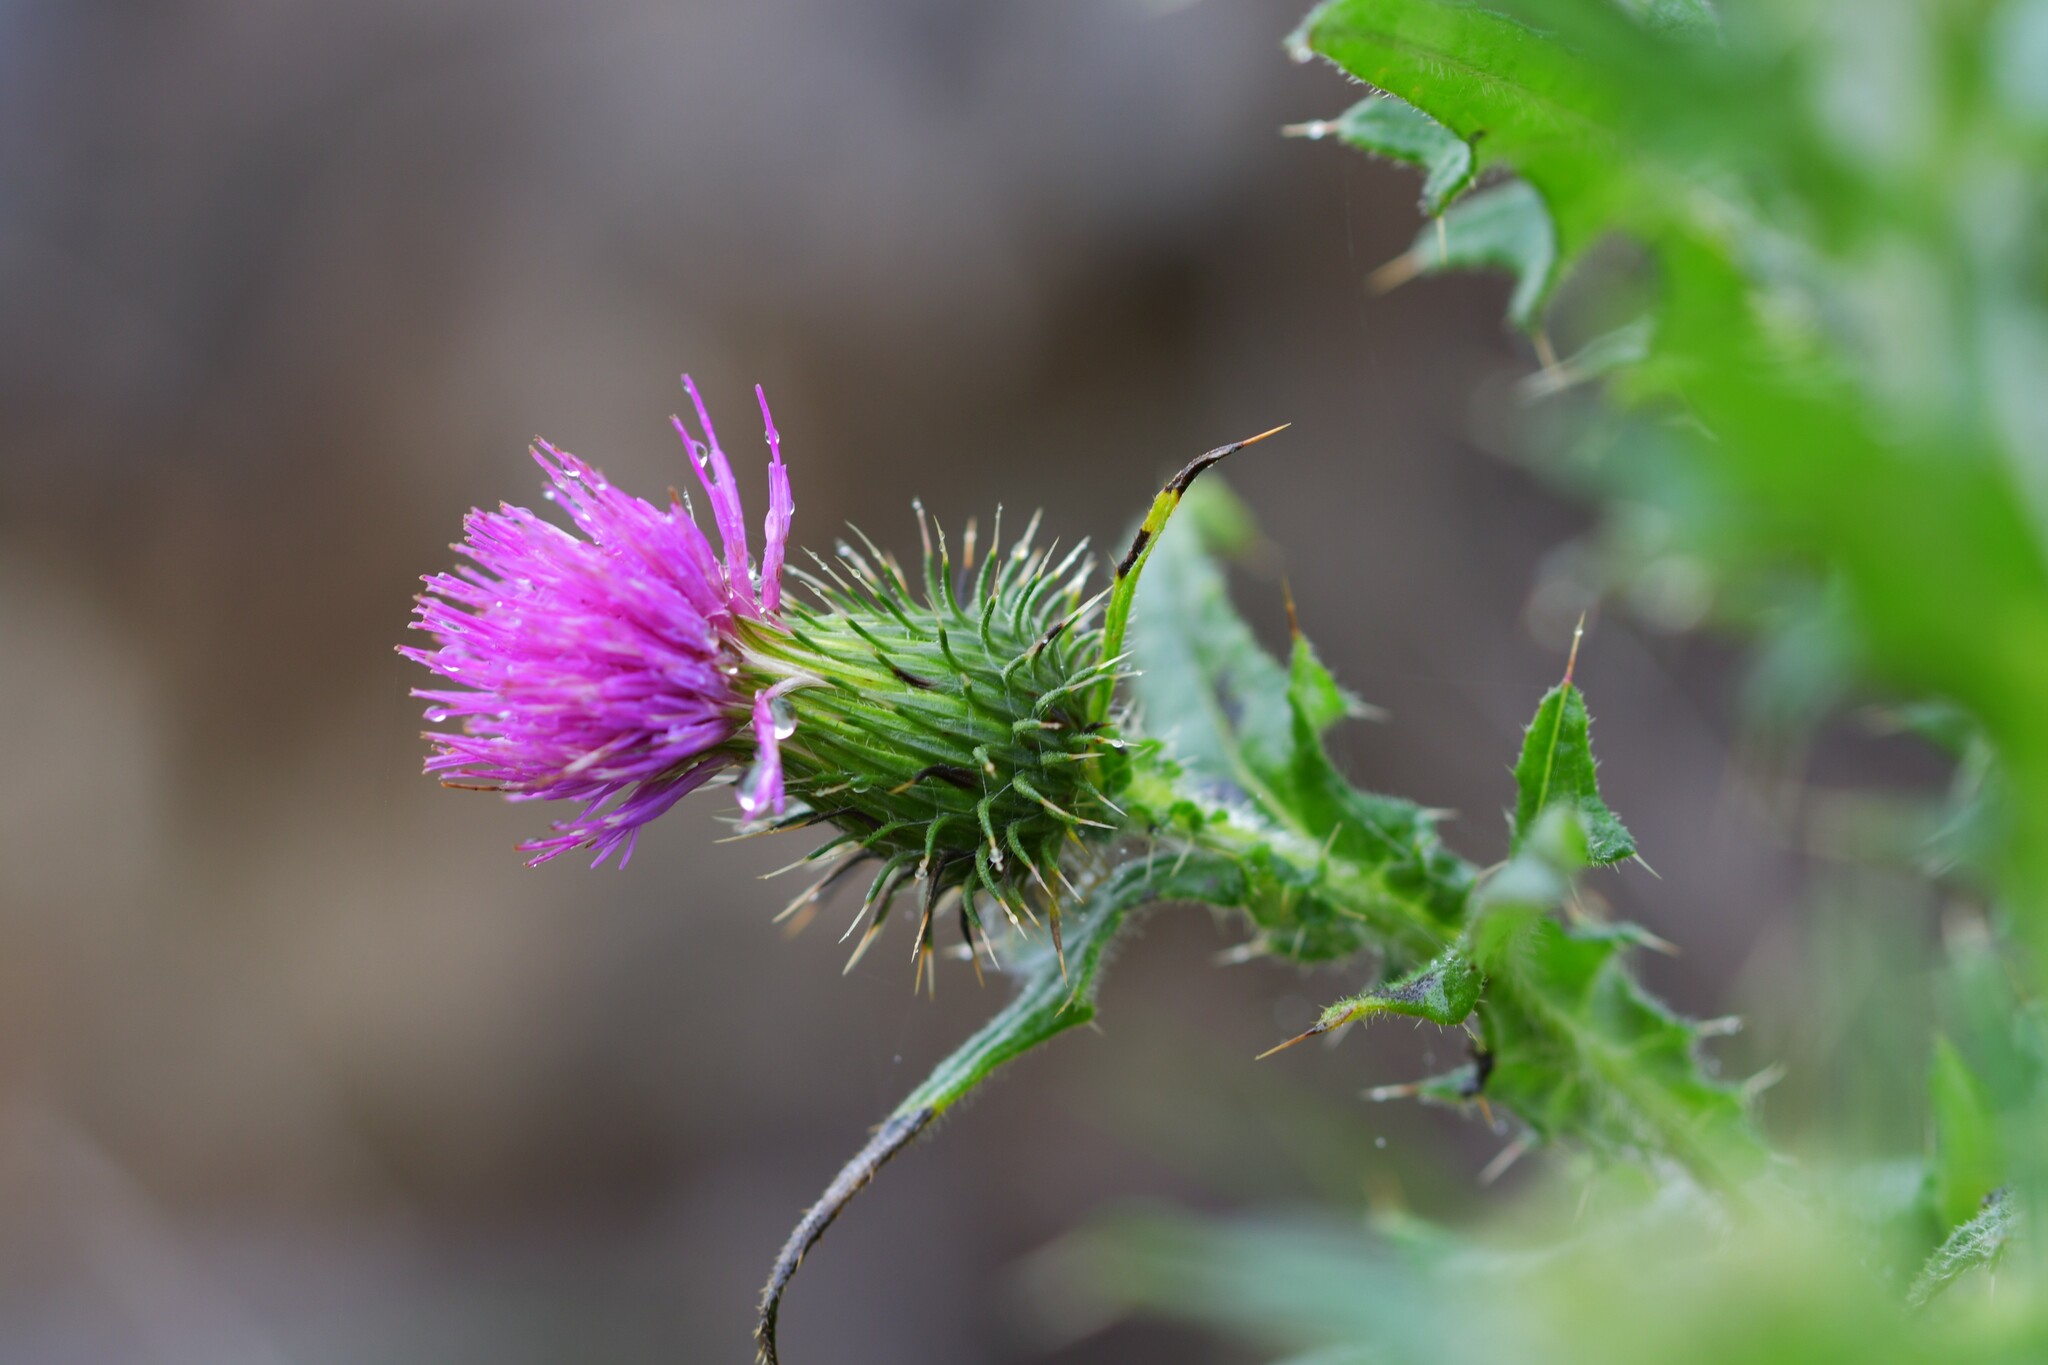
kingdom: Plantae
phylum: Tracheophyta
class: Magnoliopsida
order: Asterales
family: Asteraceae
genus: Cirsium
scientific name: Cirsium vulgare
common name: Bull thistle
